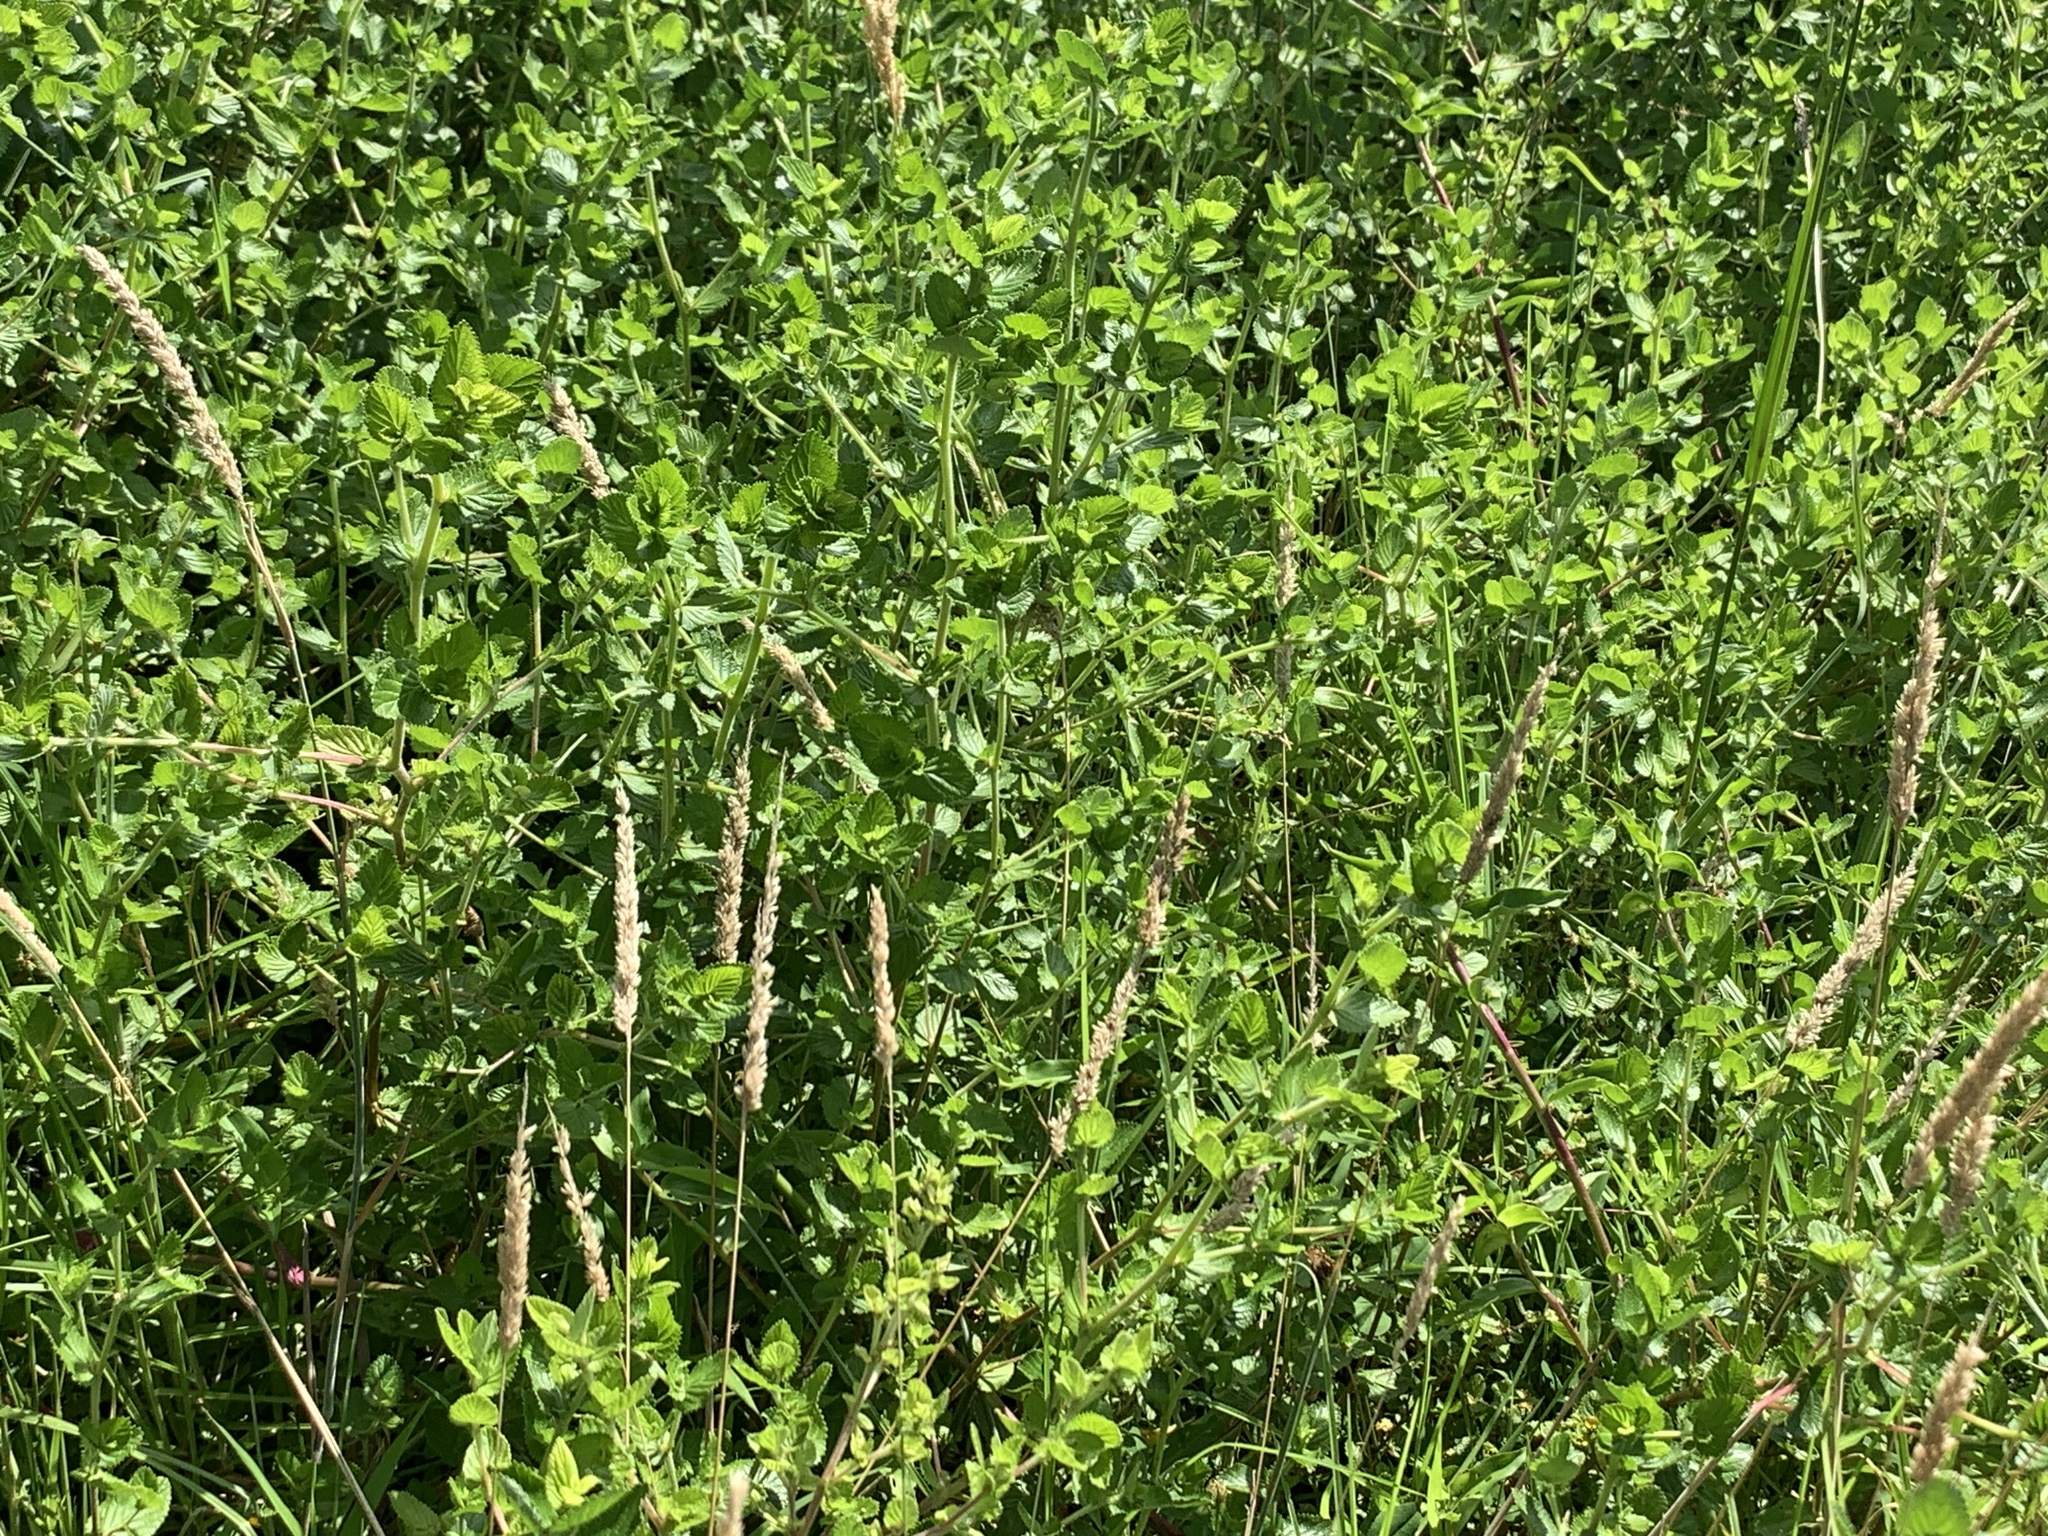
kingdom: Plantae
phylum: Tracheophyta
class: Magnoliopsida
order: Rosales
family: Rosaceae
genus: Cliffortia
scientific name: Cliffortia odorata
